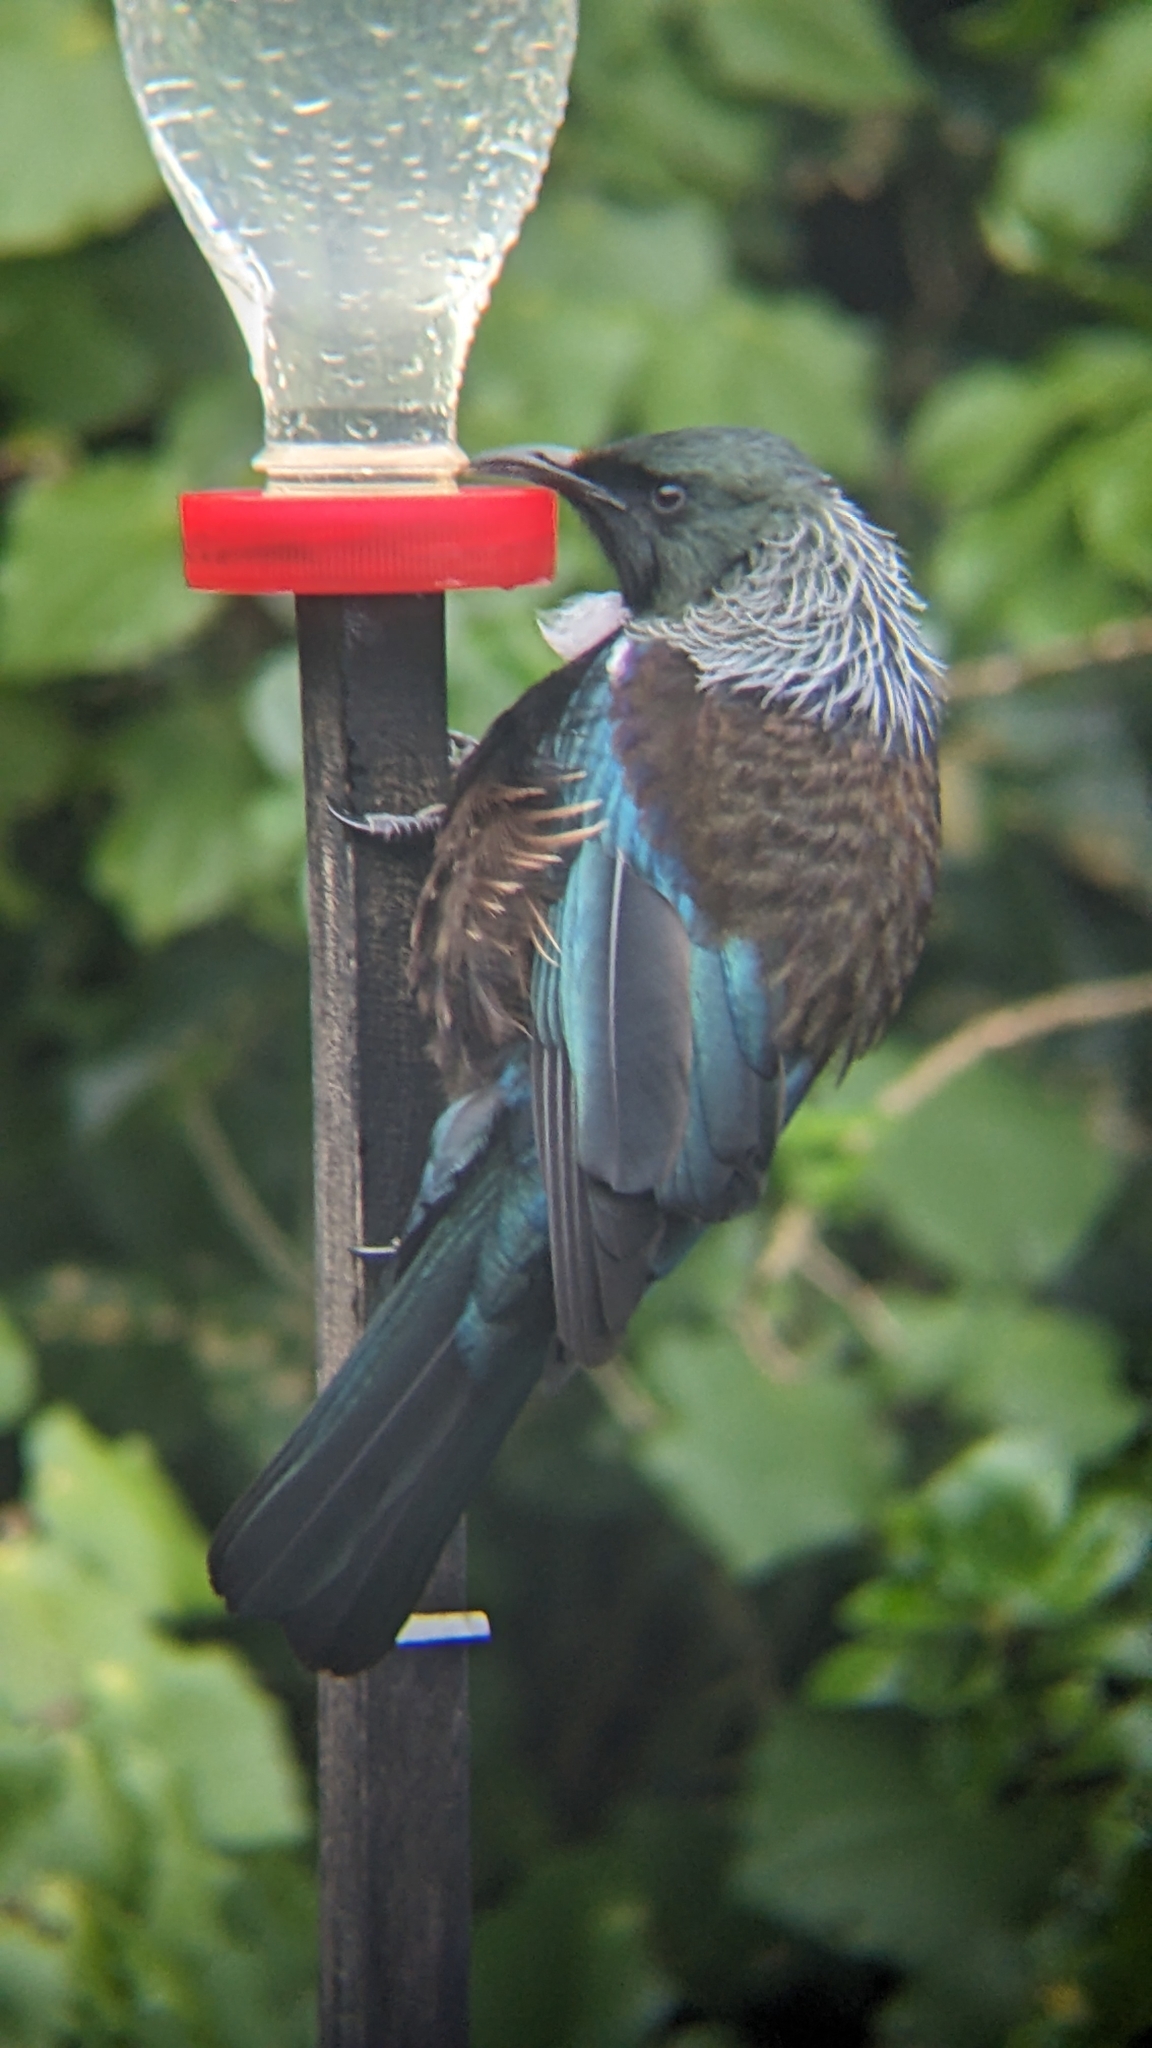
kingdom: Animalia
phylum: Chordata
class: Aves
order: Passeriformes
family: Meliphagidae
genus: Prosthemadera
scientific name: Prosthemadera novaeseelandiae
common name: Tui
